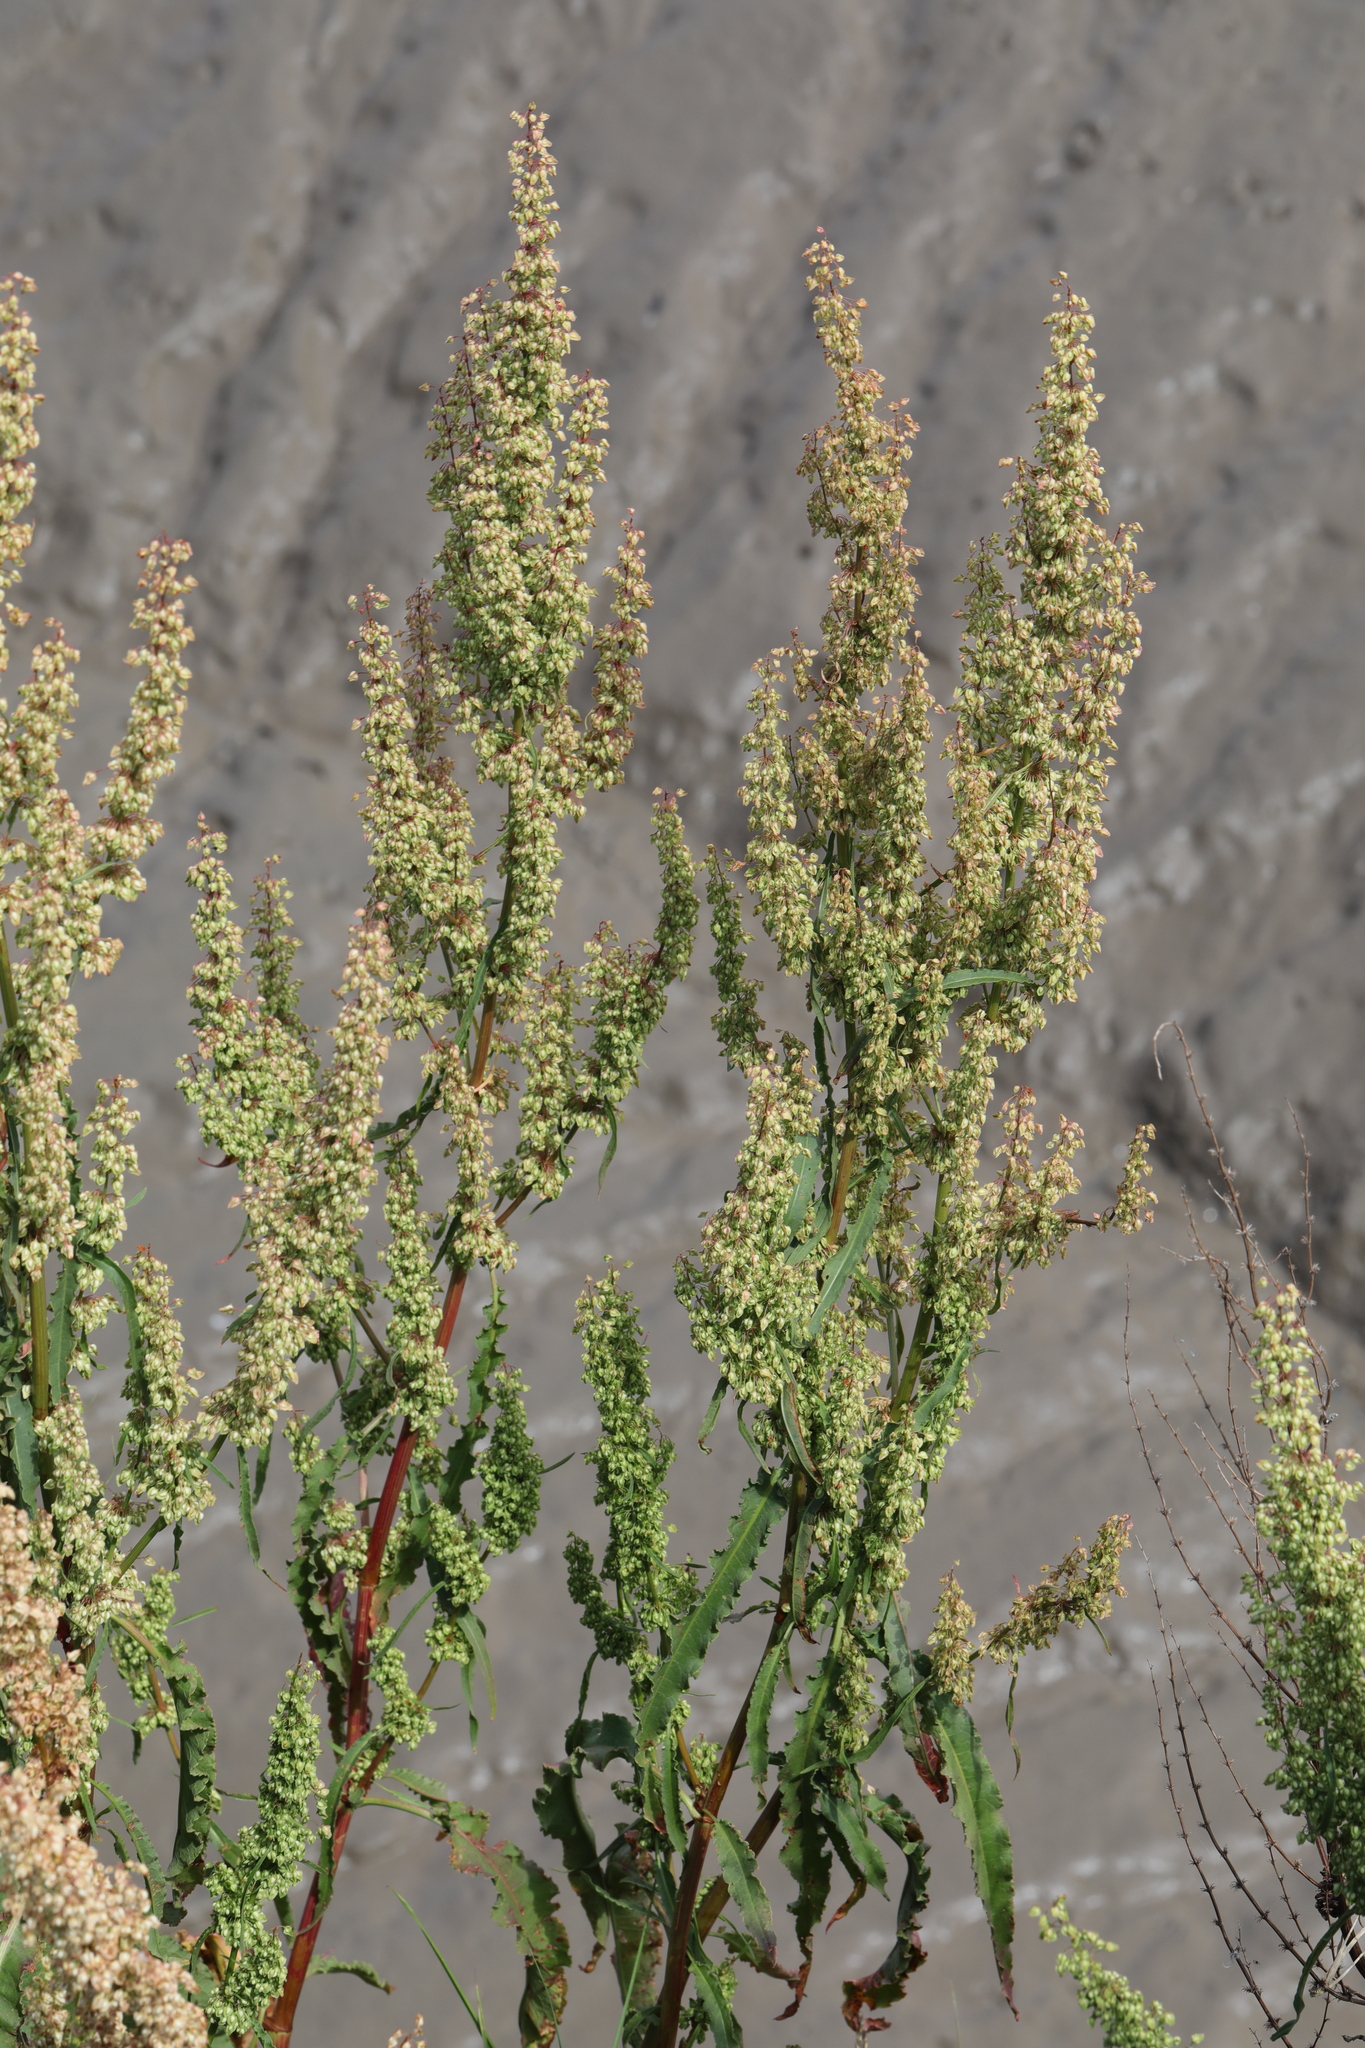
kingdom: Plantae
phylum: Tracheophyta
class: Magnoliopsida
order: Caryophyllales
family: Polygonaceae
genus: Rumex
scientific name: Rumex crispus
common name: Curled dock
